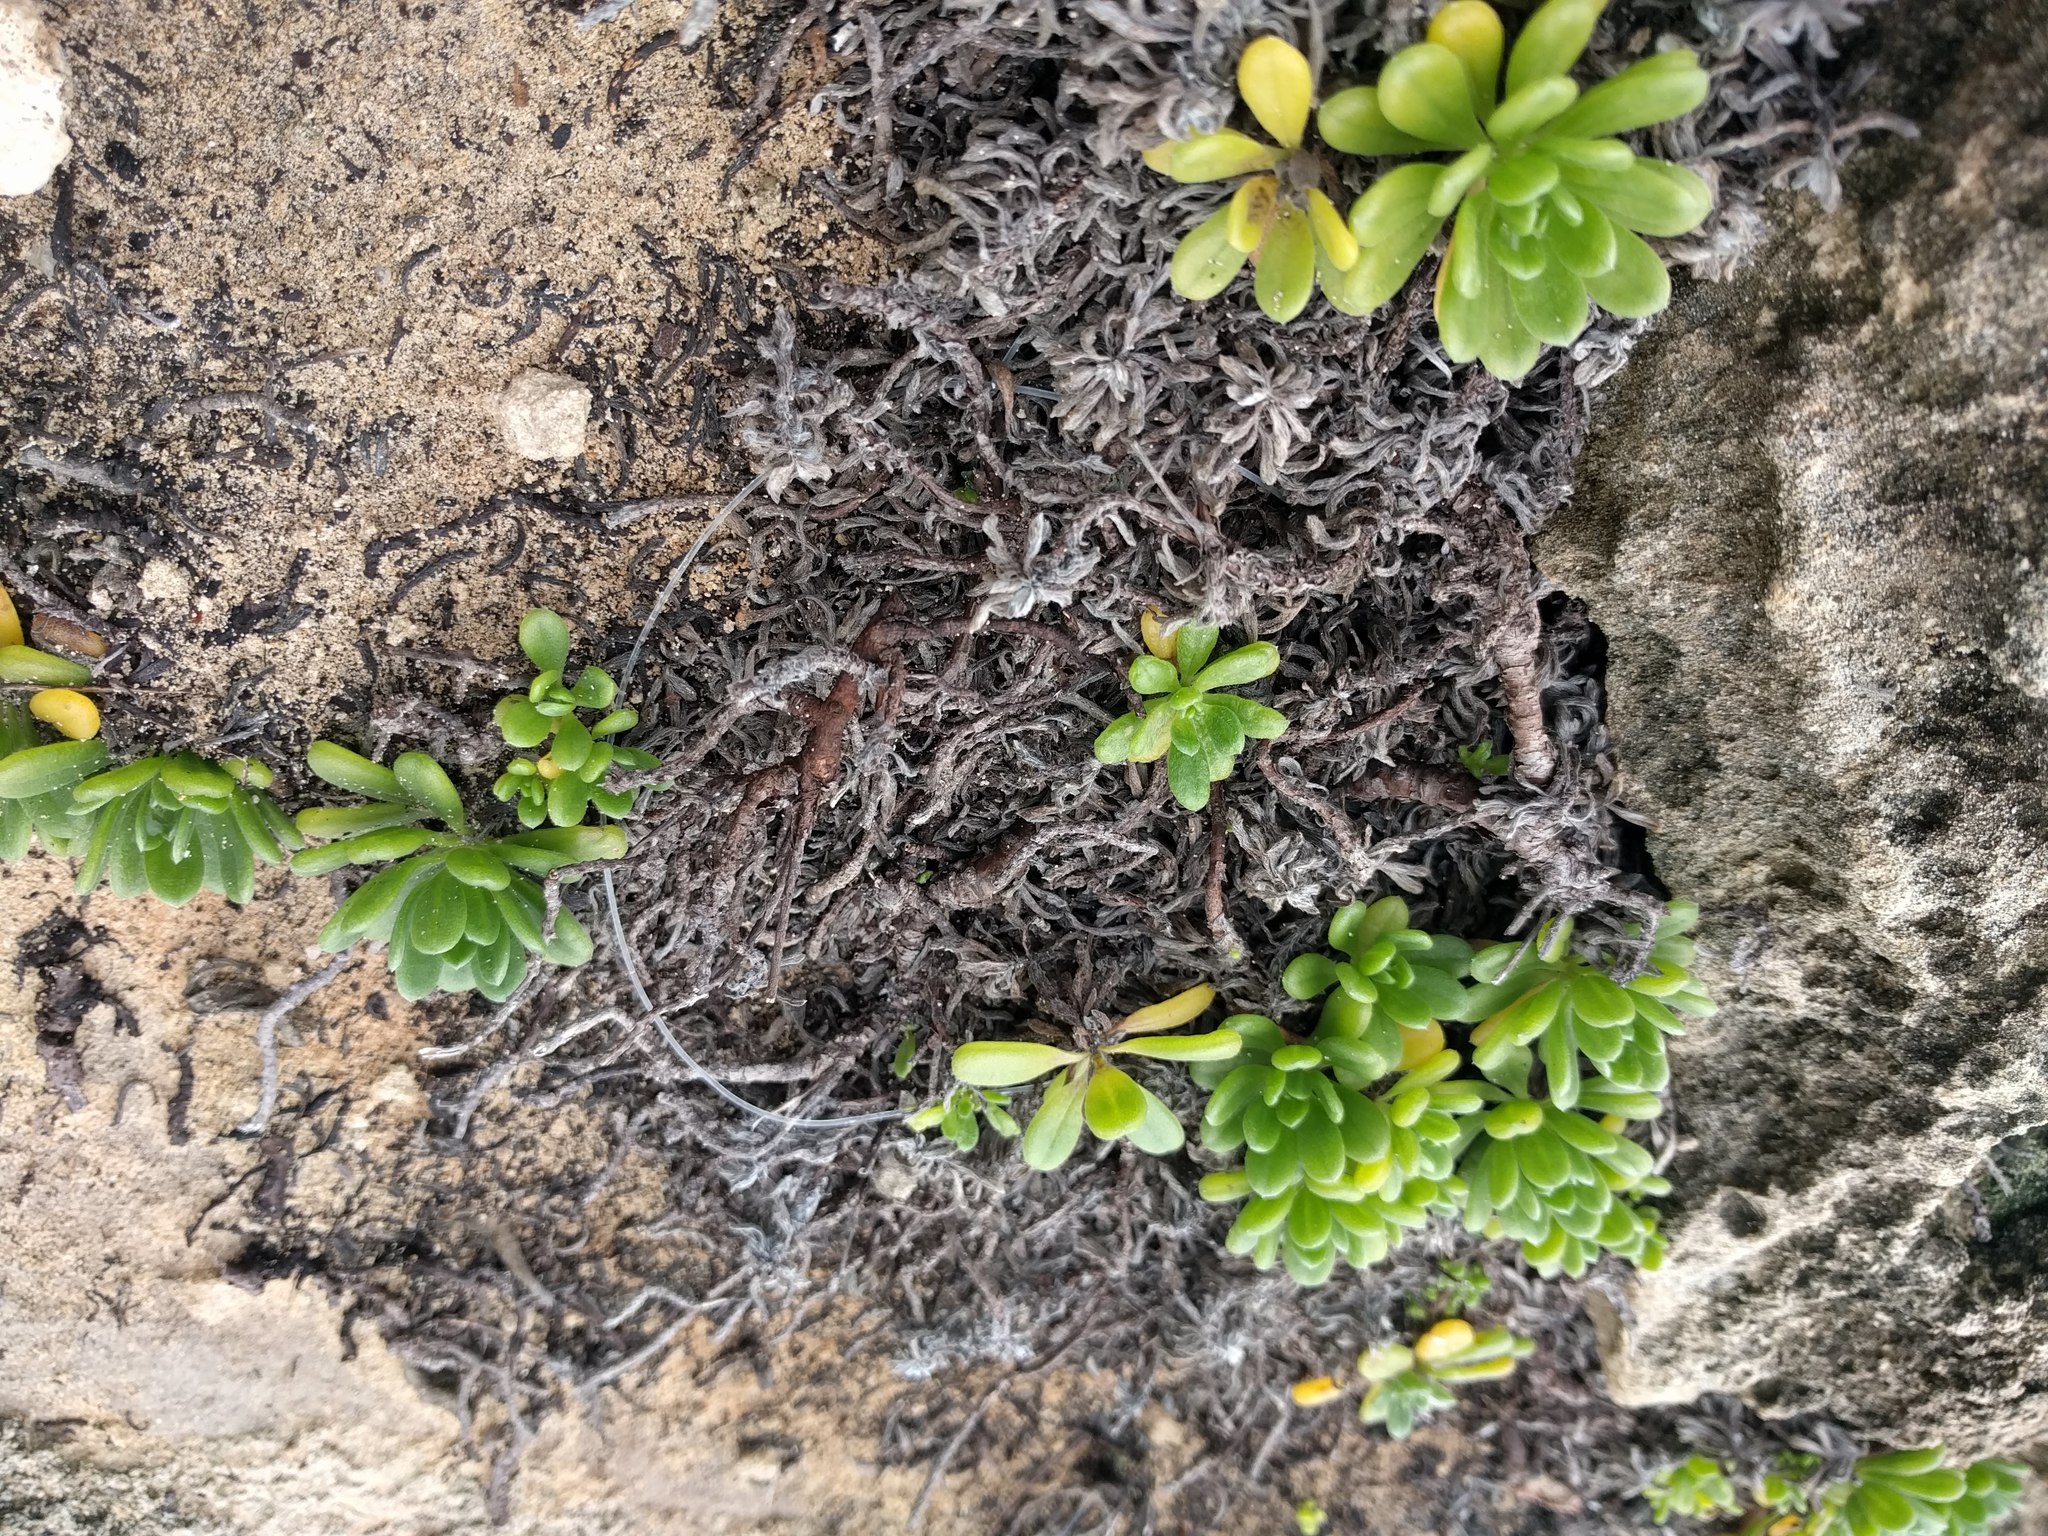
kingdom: Plantae
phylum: Tracheophyta
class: Magnoliopsida
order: Boraginales
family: Heliotropiaceae
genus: Heliotropium
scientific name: Heliotropium anomalum
